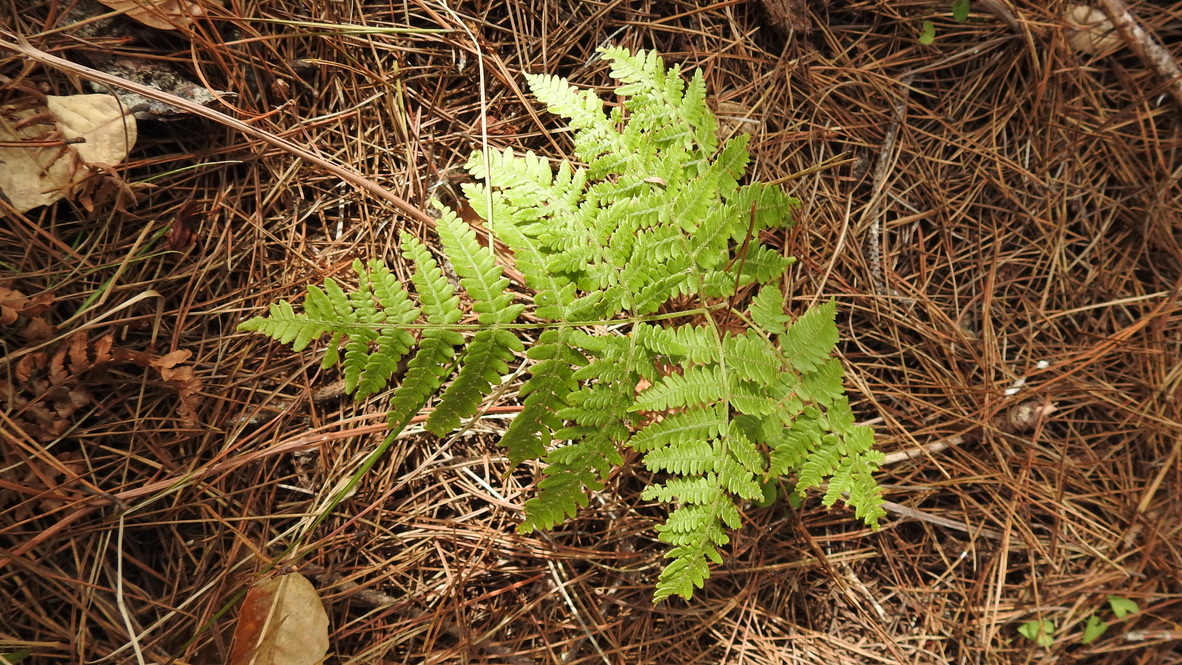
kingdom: Plantae
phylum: Tracheophyta
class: Polypodiopsida
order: Polypodiales
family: Dennstaedtiaceae
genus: Pteridium
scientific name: Pteridium aquilinum
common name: Bracken
